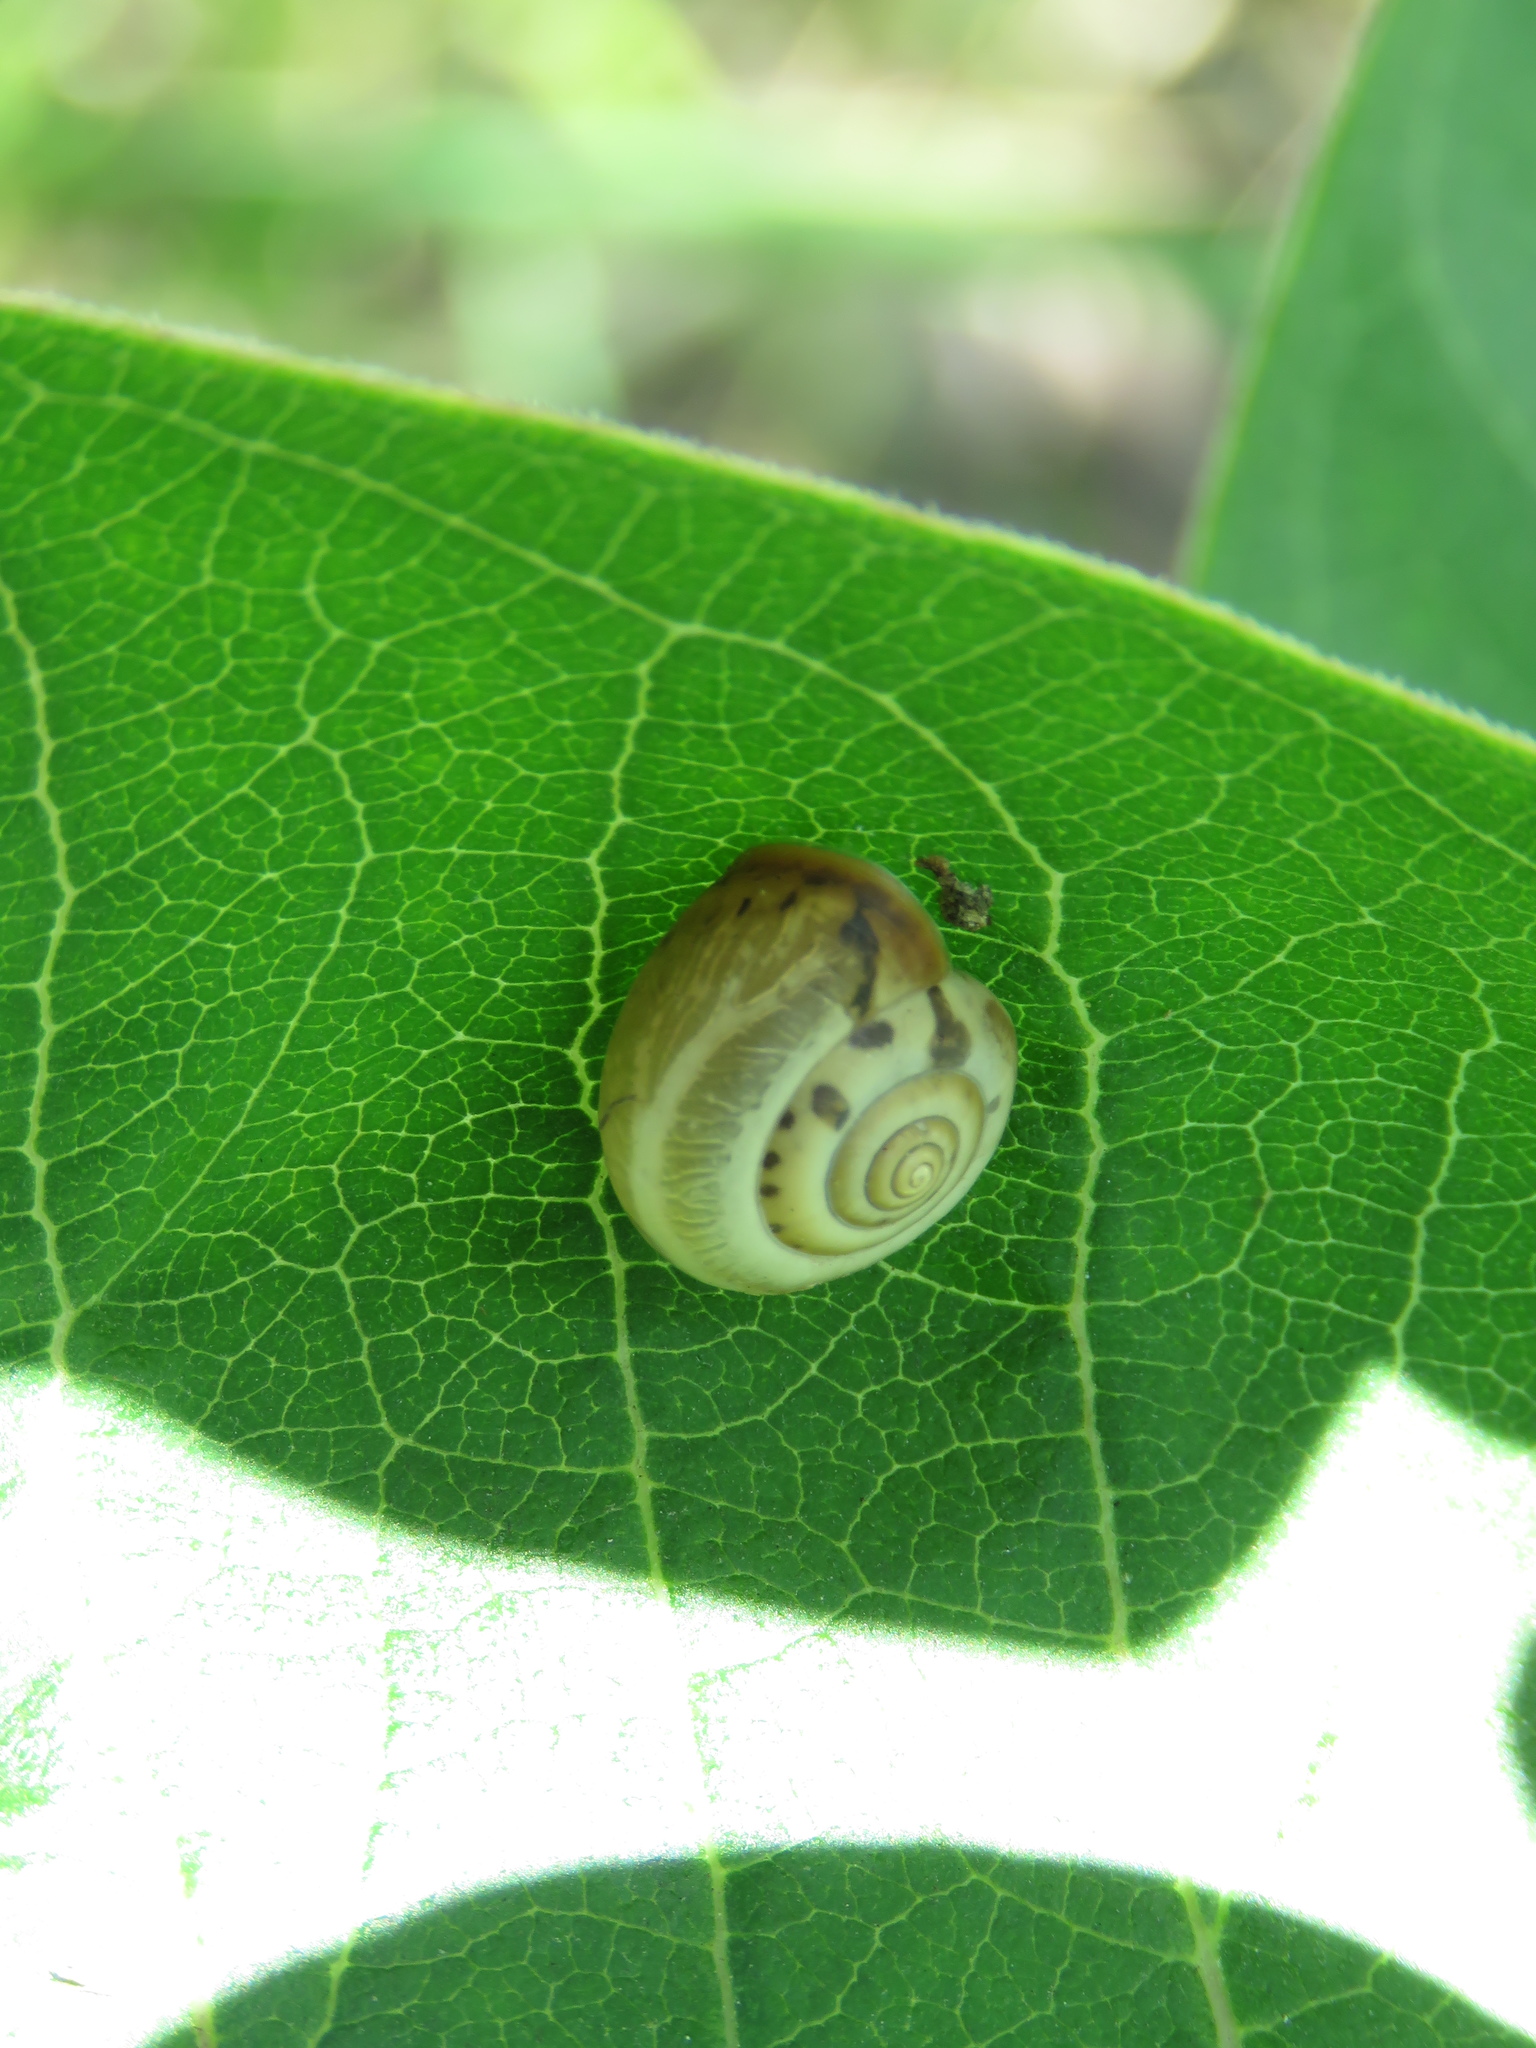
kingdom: Animalia
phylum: Mollusca
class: Gastropoda
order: Stylommatophora
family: Hygromiidae
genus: Monacha
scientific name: Monacha cartusiana
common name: Carthusian snail
